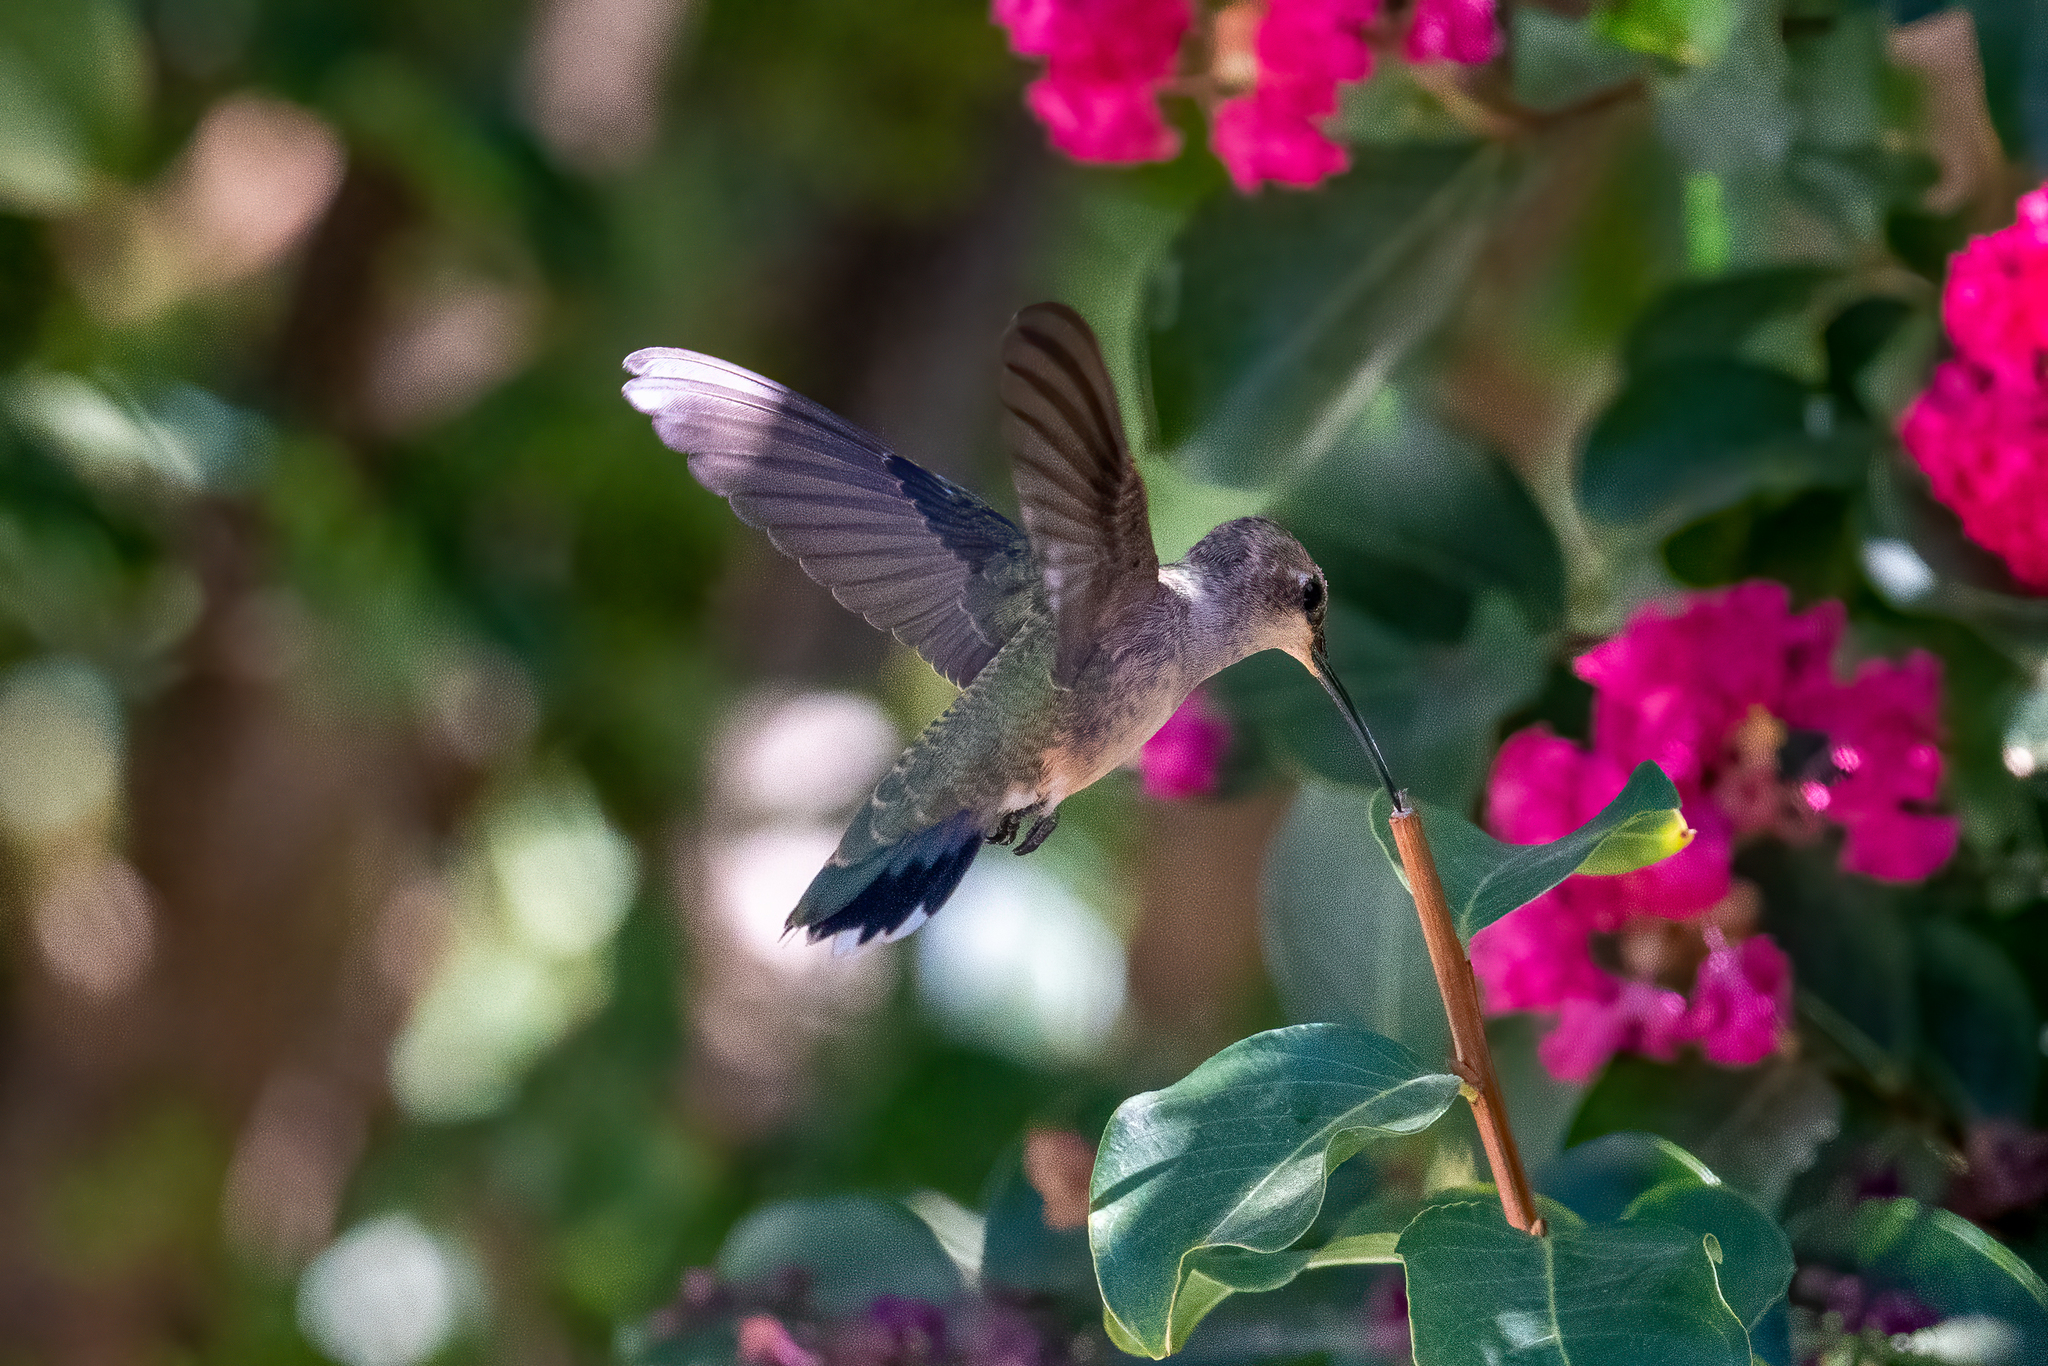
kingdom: Animalia
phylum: Chordata
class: Aves
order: Apodiformes
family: Trochilidae
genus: Archilochus
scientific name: Archilochus alexandri
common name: Black-chinned hummingbird
